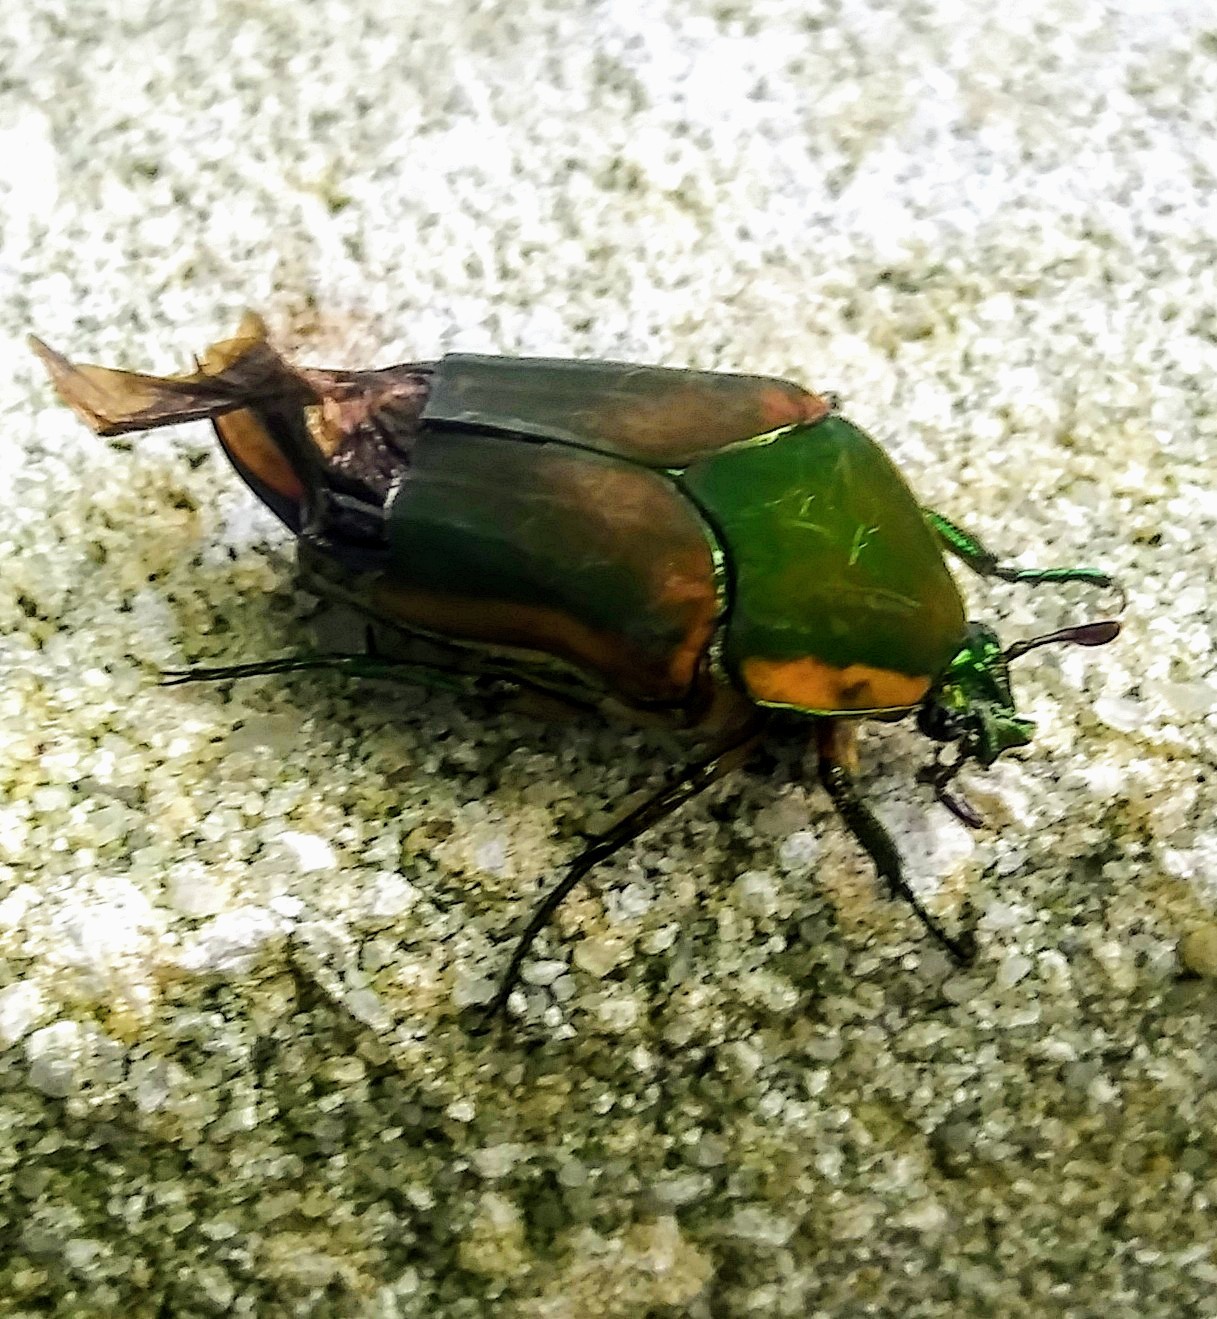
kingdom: Animalia
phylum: Arthropoda
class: Insecta
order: Coleoptera
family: Scarabaeidae
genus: Cotinis
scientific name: Cotinis nitida
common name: Common green june beetle
